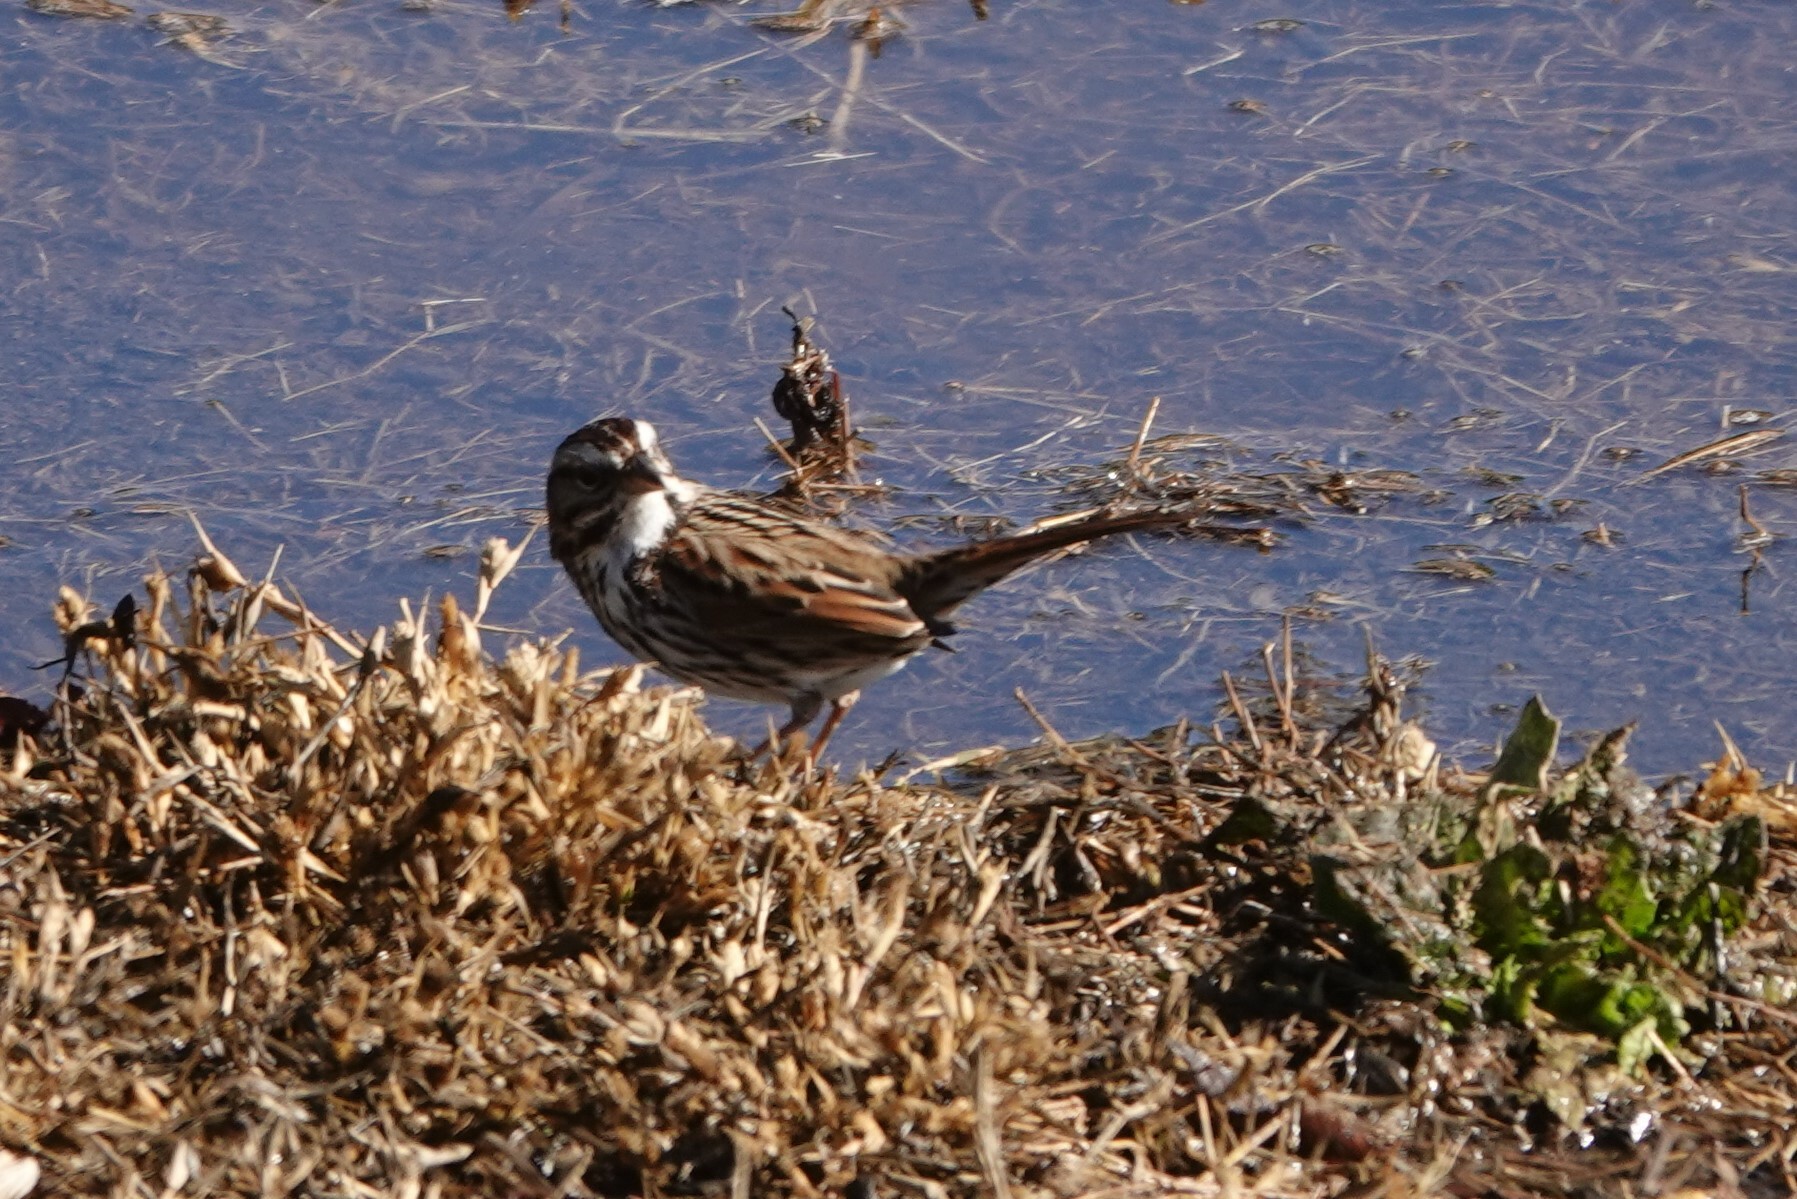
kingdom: Animalia
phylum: Chordata
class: Aves
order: Passeriformes
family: Passerellidae
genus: Melospiza
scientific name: Melospiza melodia
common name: Song sparrow
